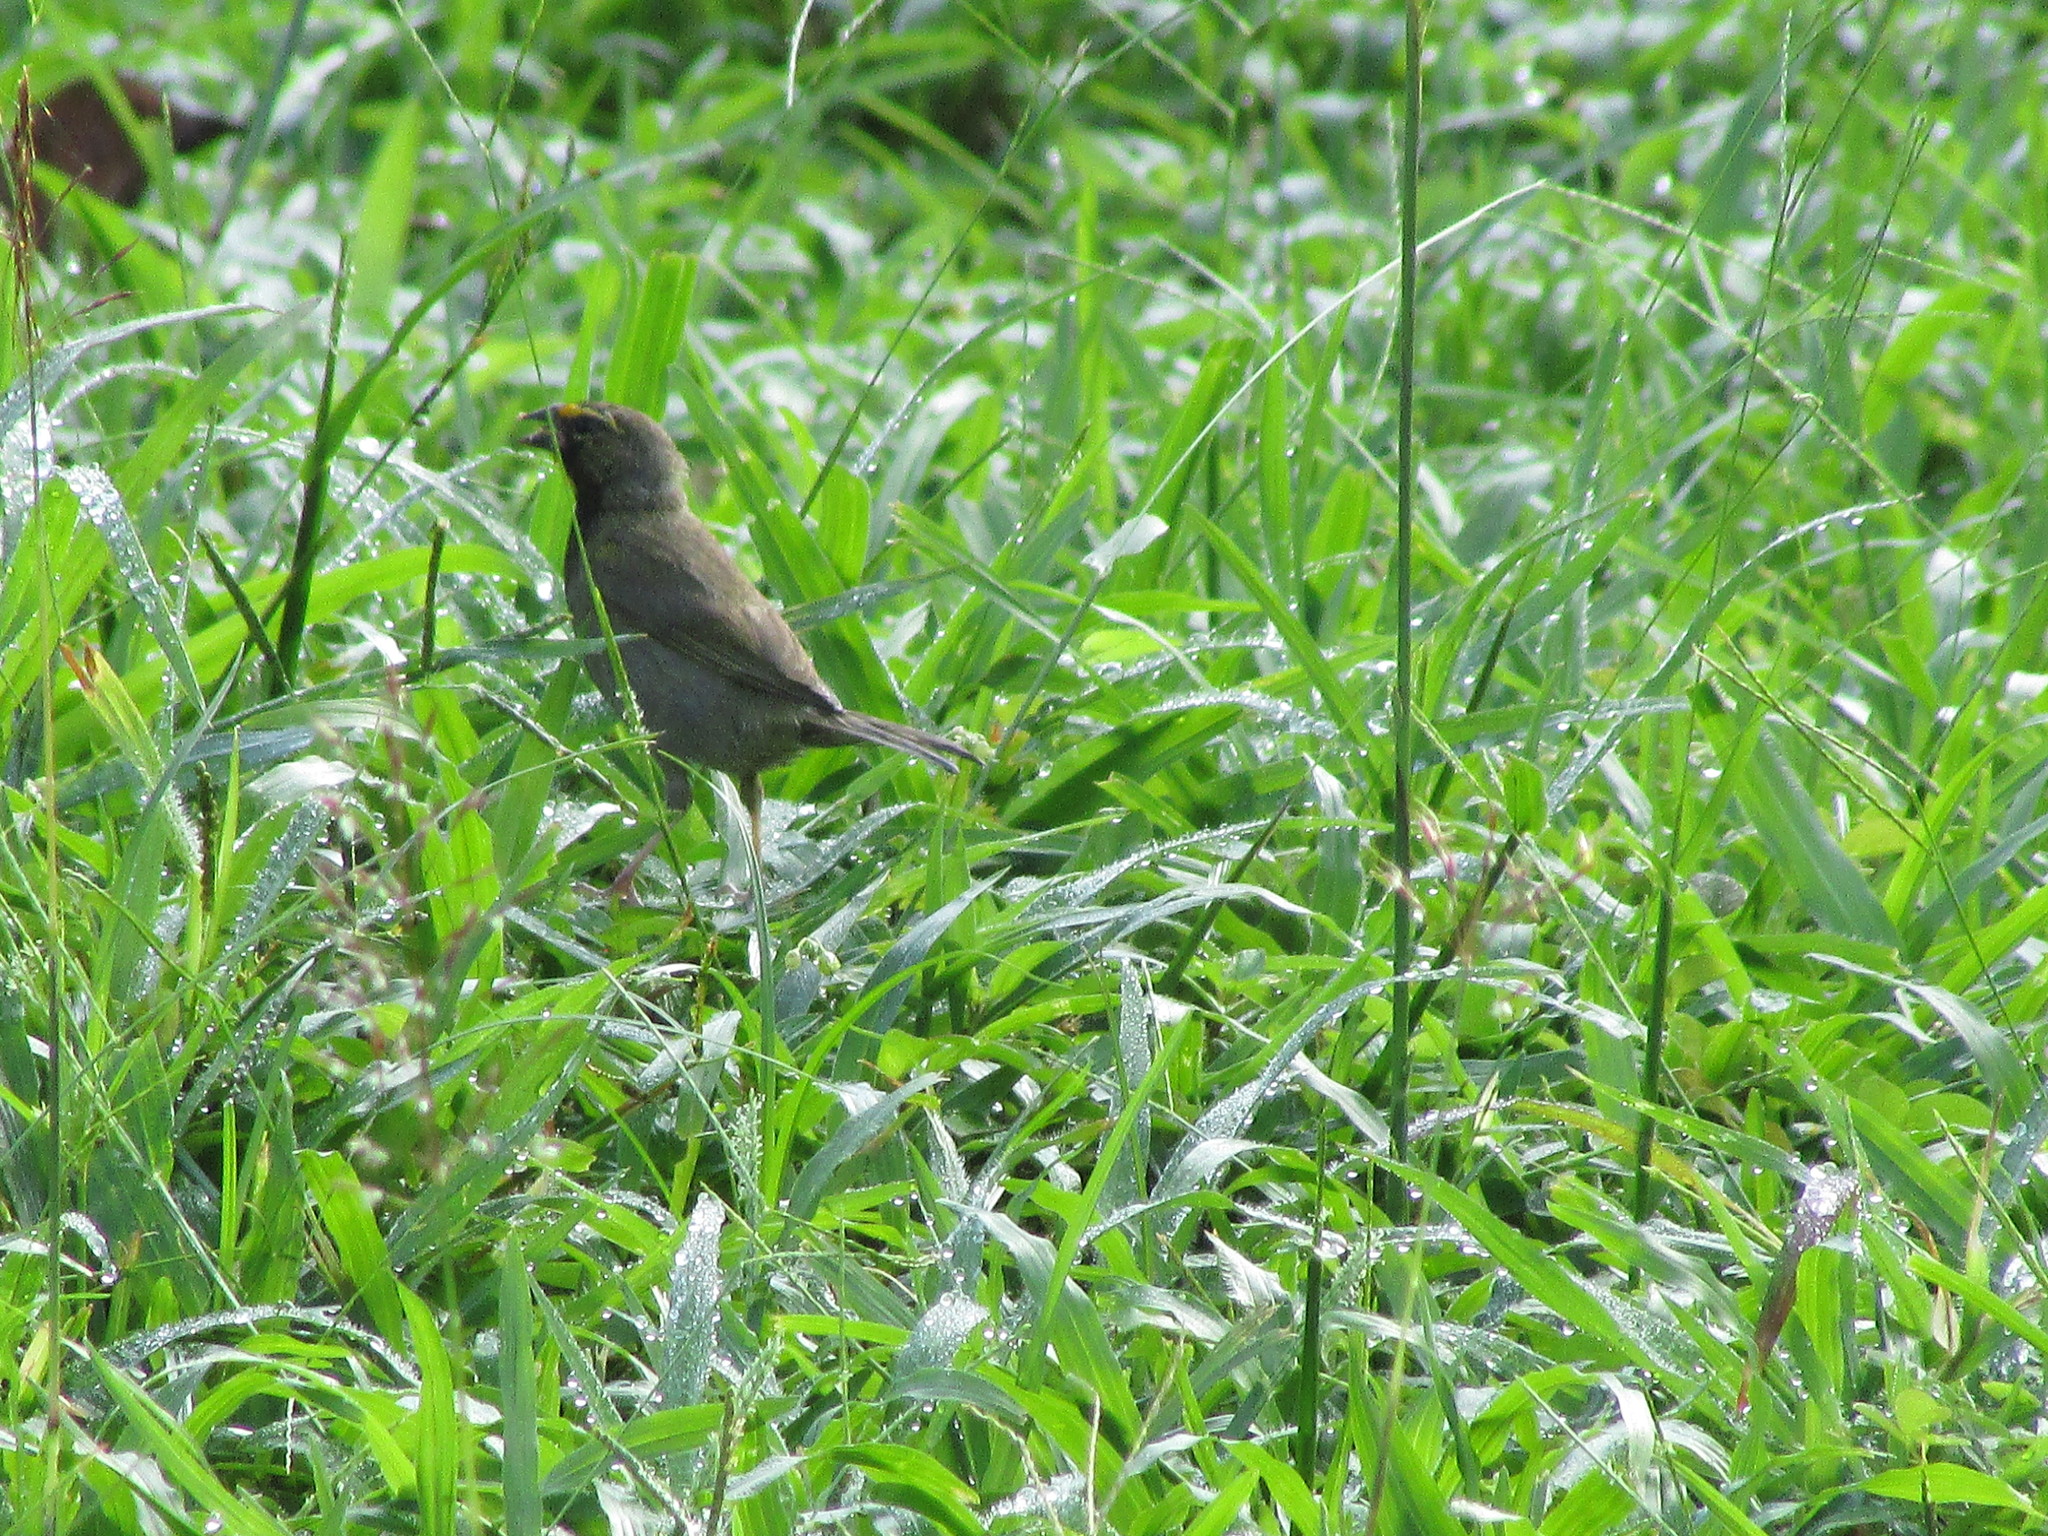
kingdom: Animalia
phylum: Chordata
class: Aves
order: Passeriformes
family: Thraupidae
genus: Tiaris
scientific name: Tiaris olivaceus
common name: Yellow-faced grassquit
